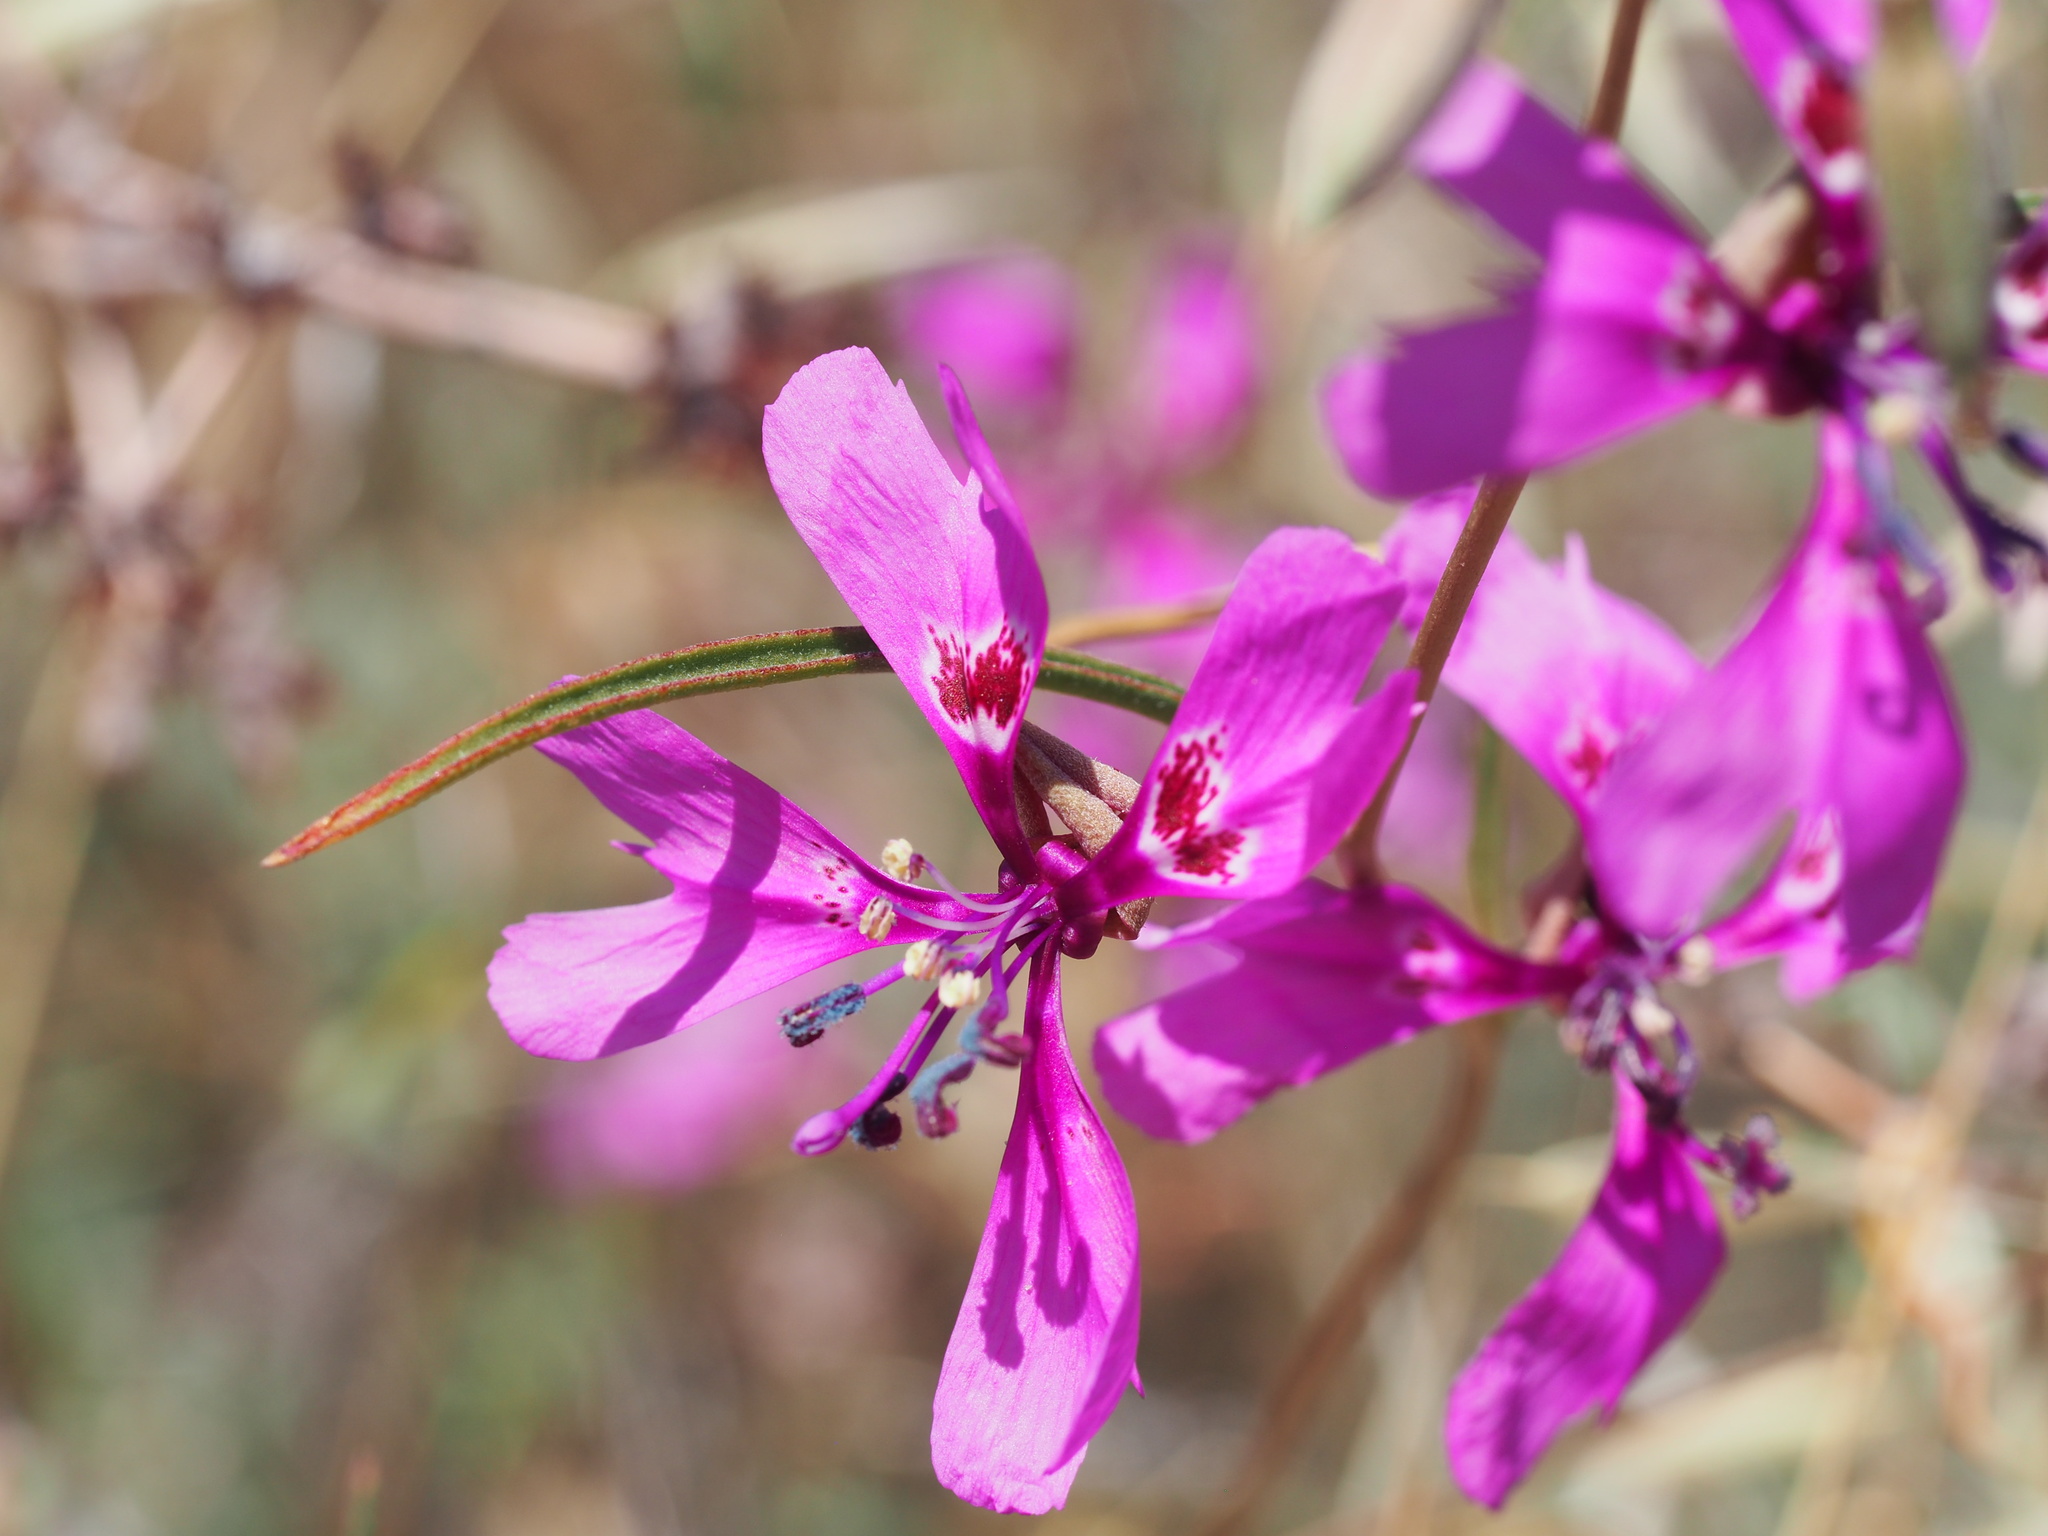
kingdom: Plantae
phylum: Tracheophyta
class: Magnoliopsida
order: Myrtales
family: Onagraceae
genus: Clarkia
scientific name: Clarkia xantiana
